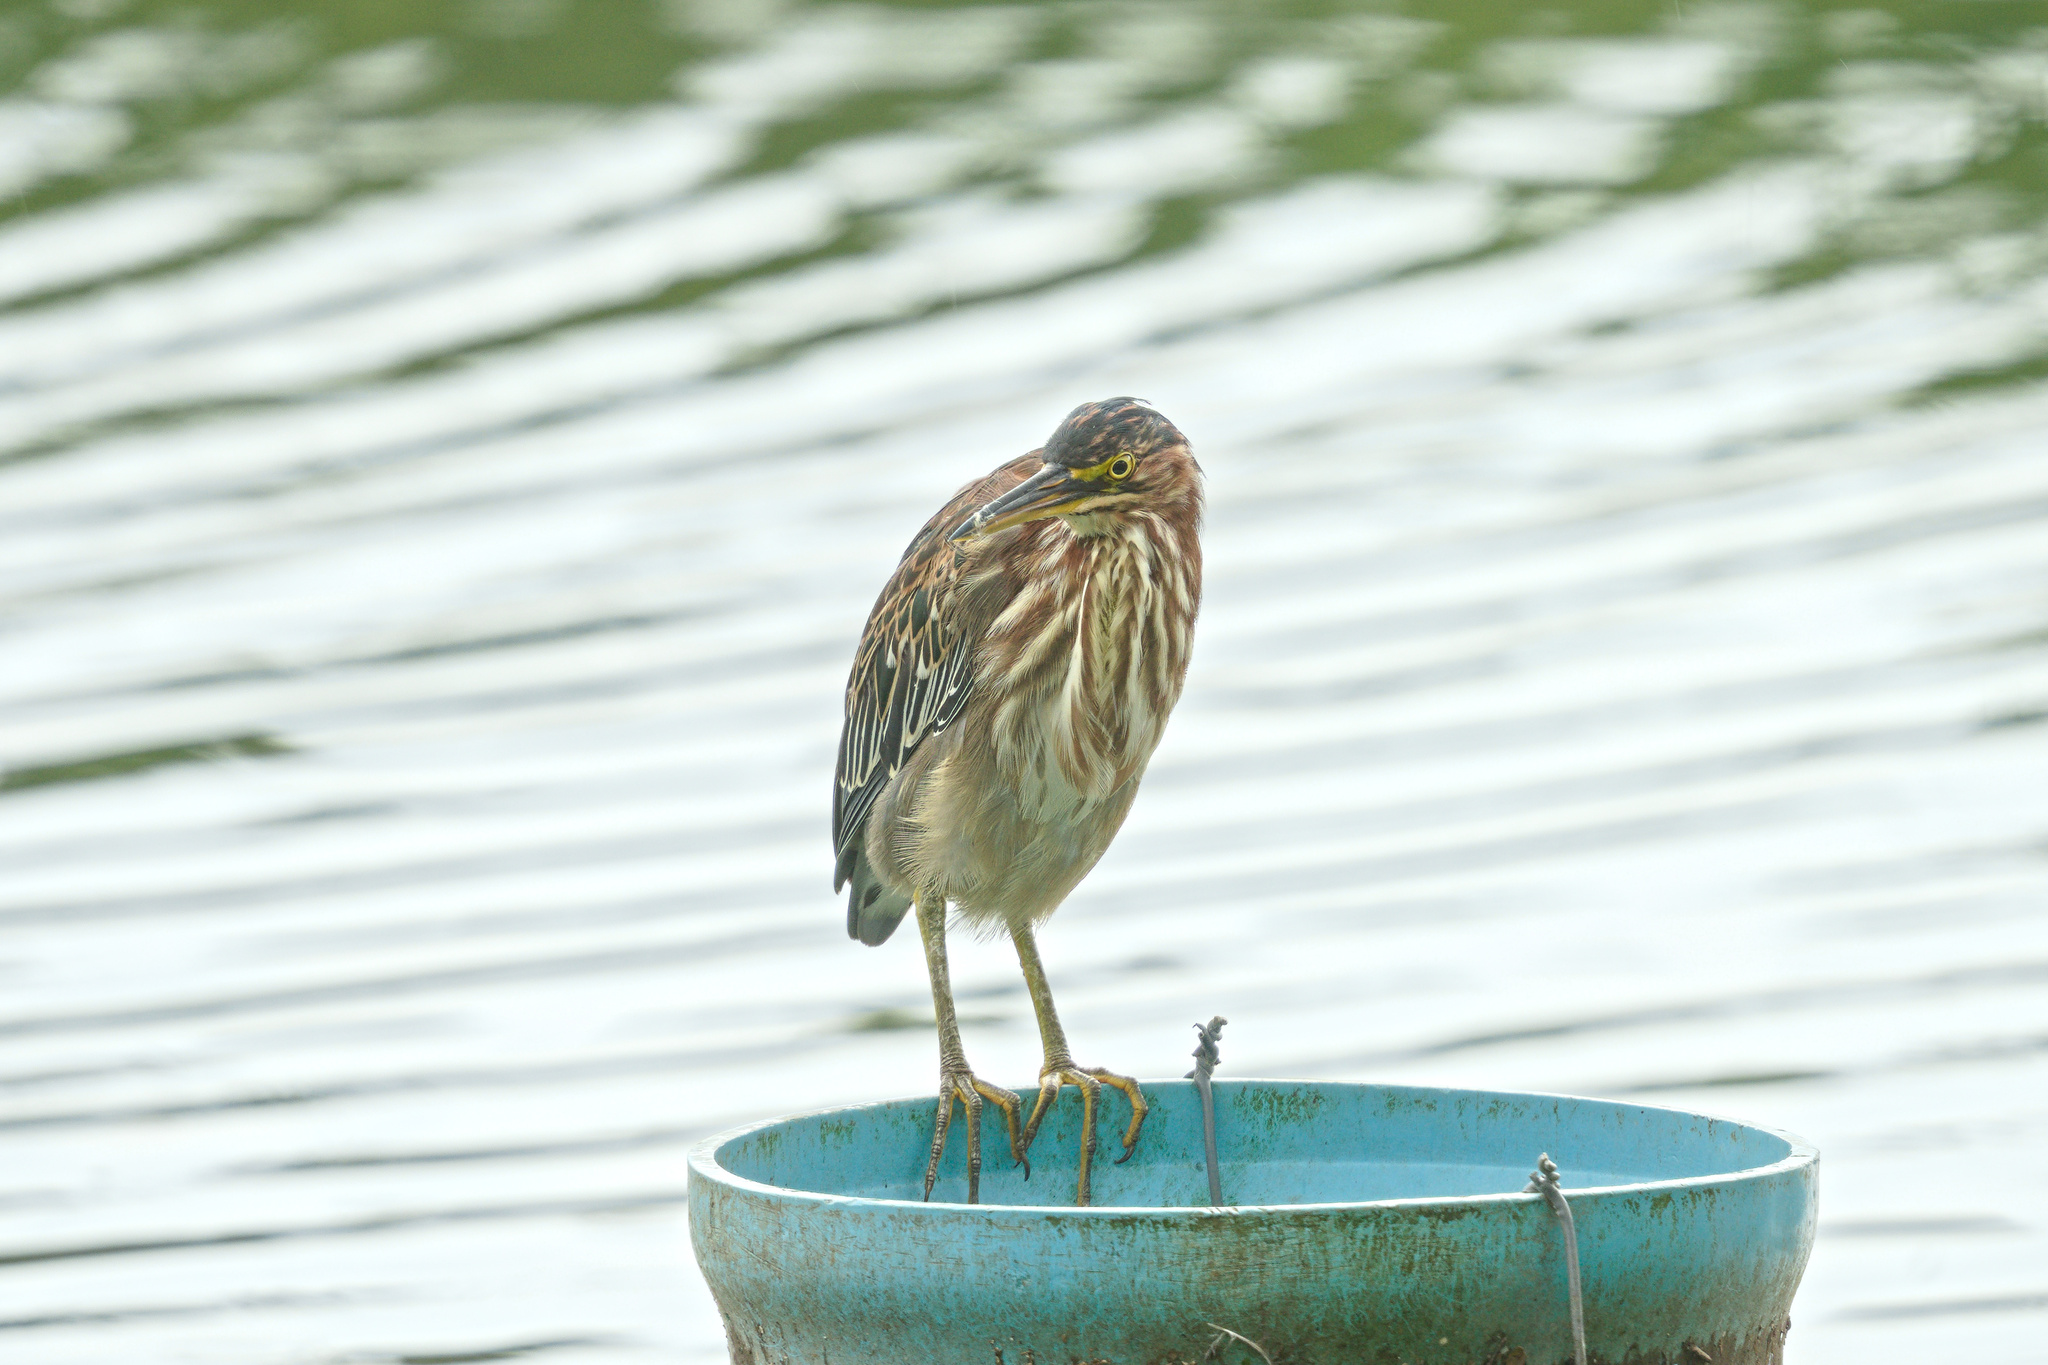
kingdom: Animalia
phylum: Chordata
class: Aves
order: Pelecaniformes
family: Ardeidae
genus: Butorides
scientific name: Butorides virescens
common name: Green heron
